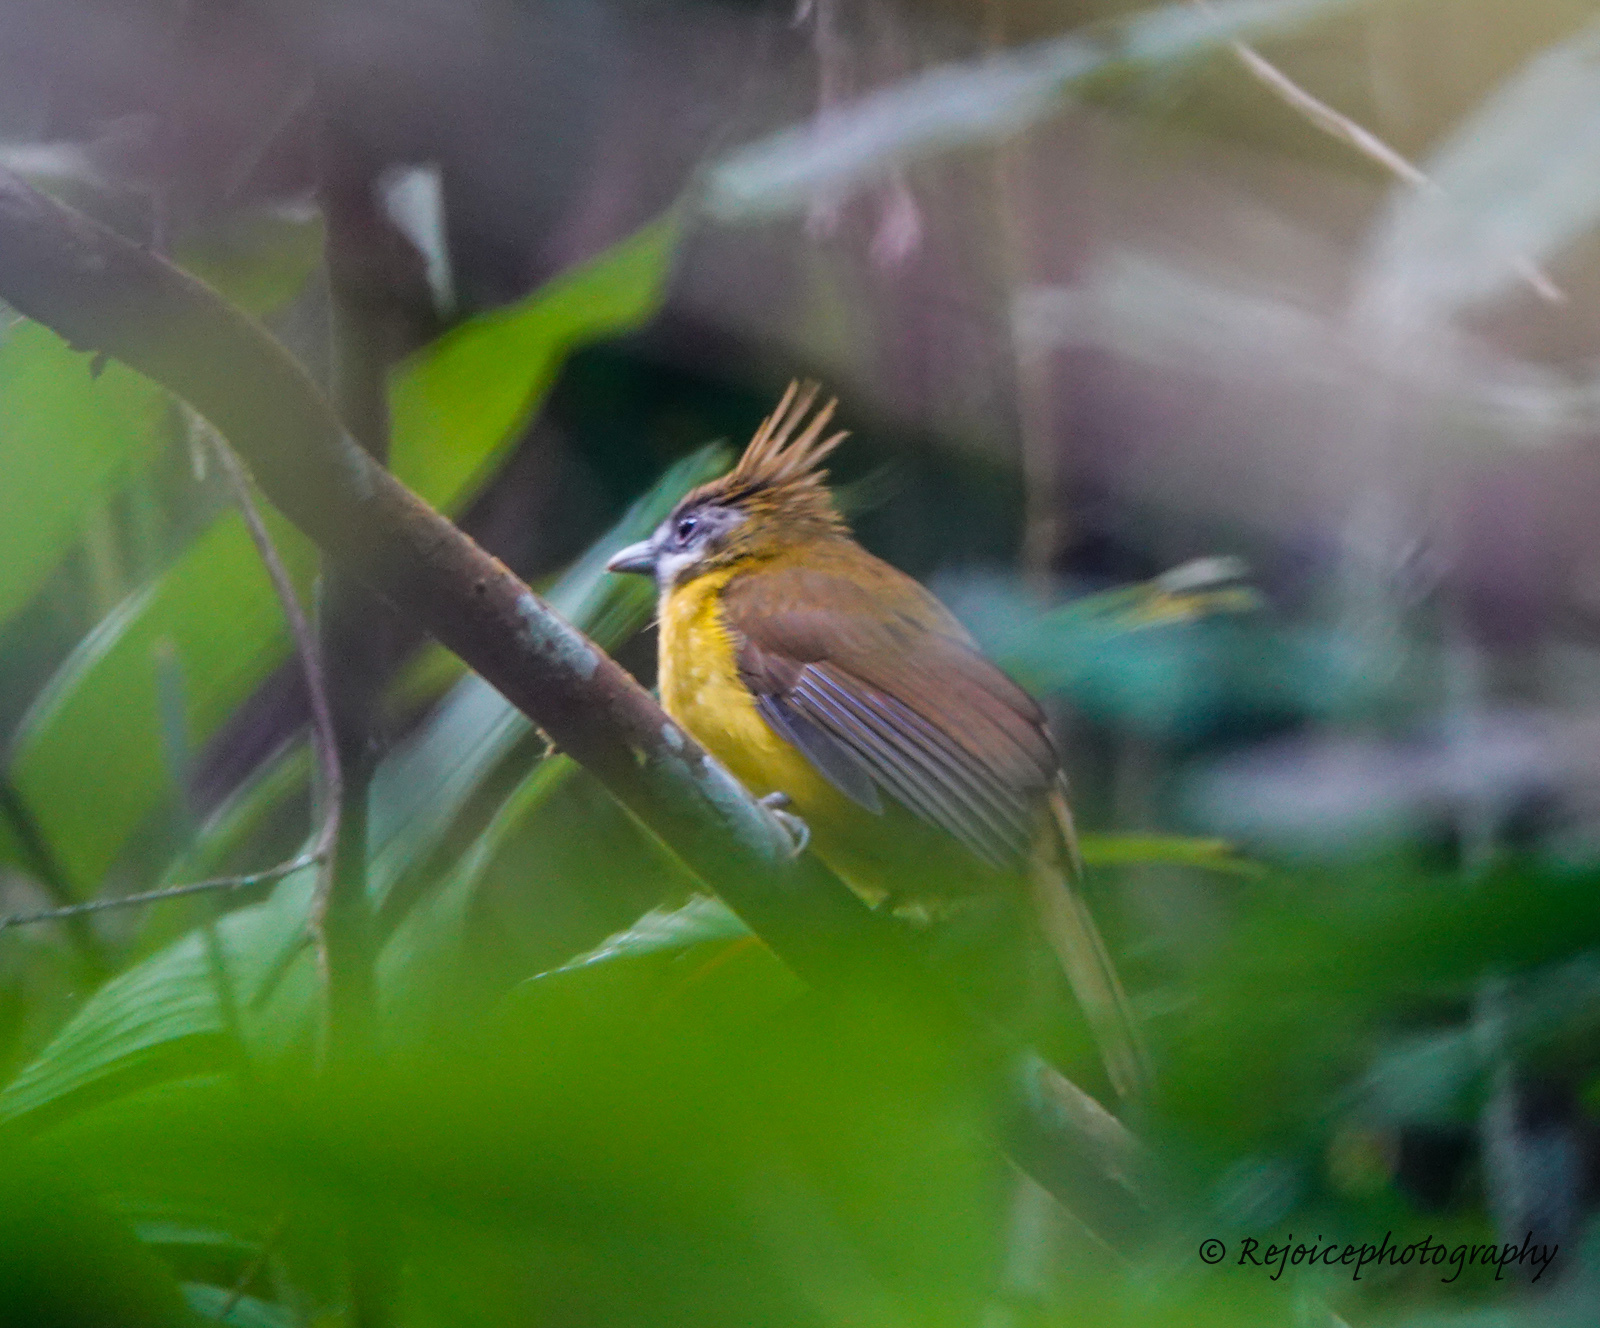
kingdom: Animalia
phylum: Chordata
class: Aves
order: Passeriformes
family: Pycnonotidae
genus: Alophoixus
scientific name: Alophoixus flaveolus
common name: White-throated bulbul
